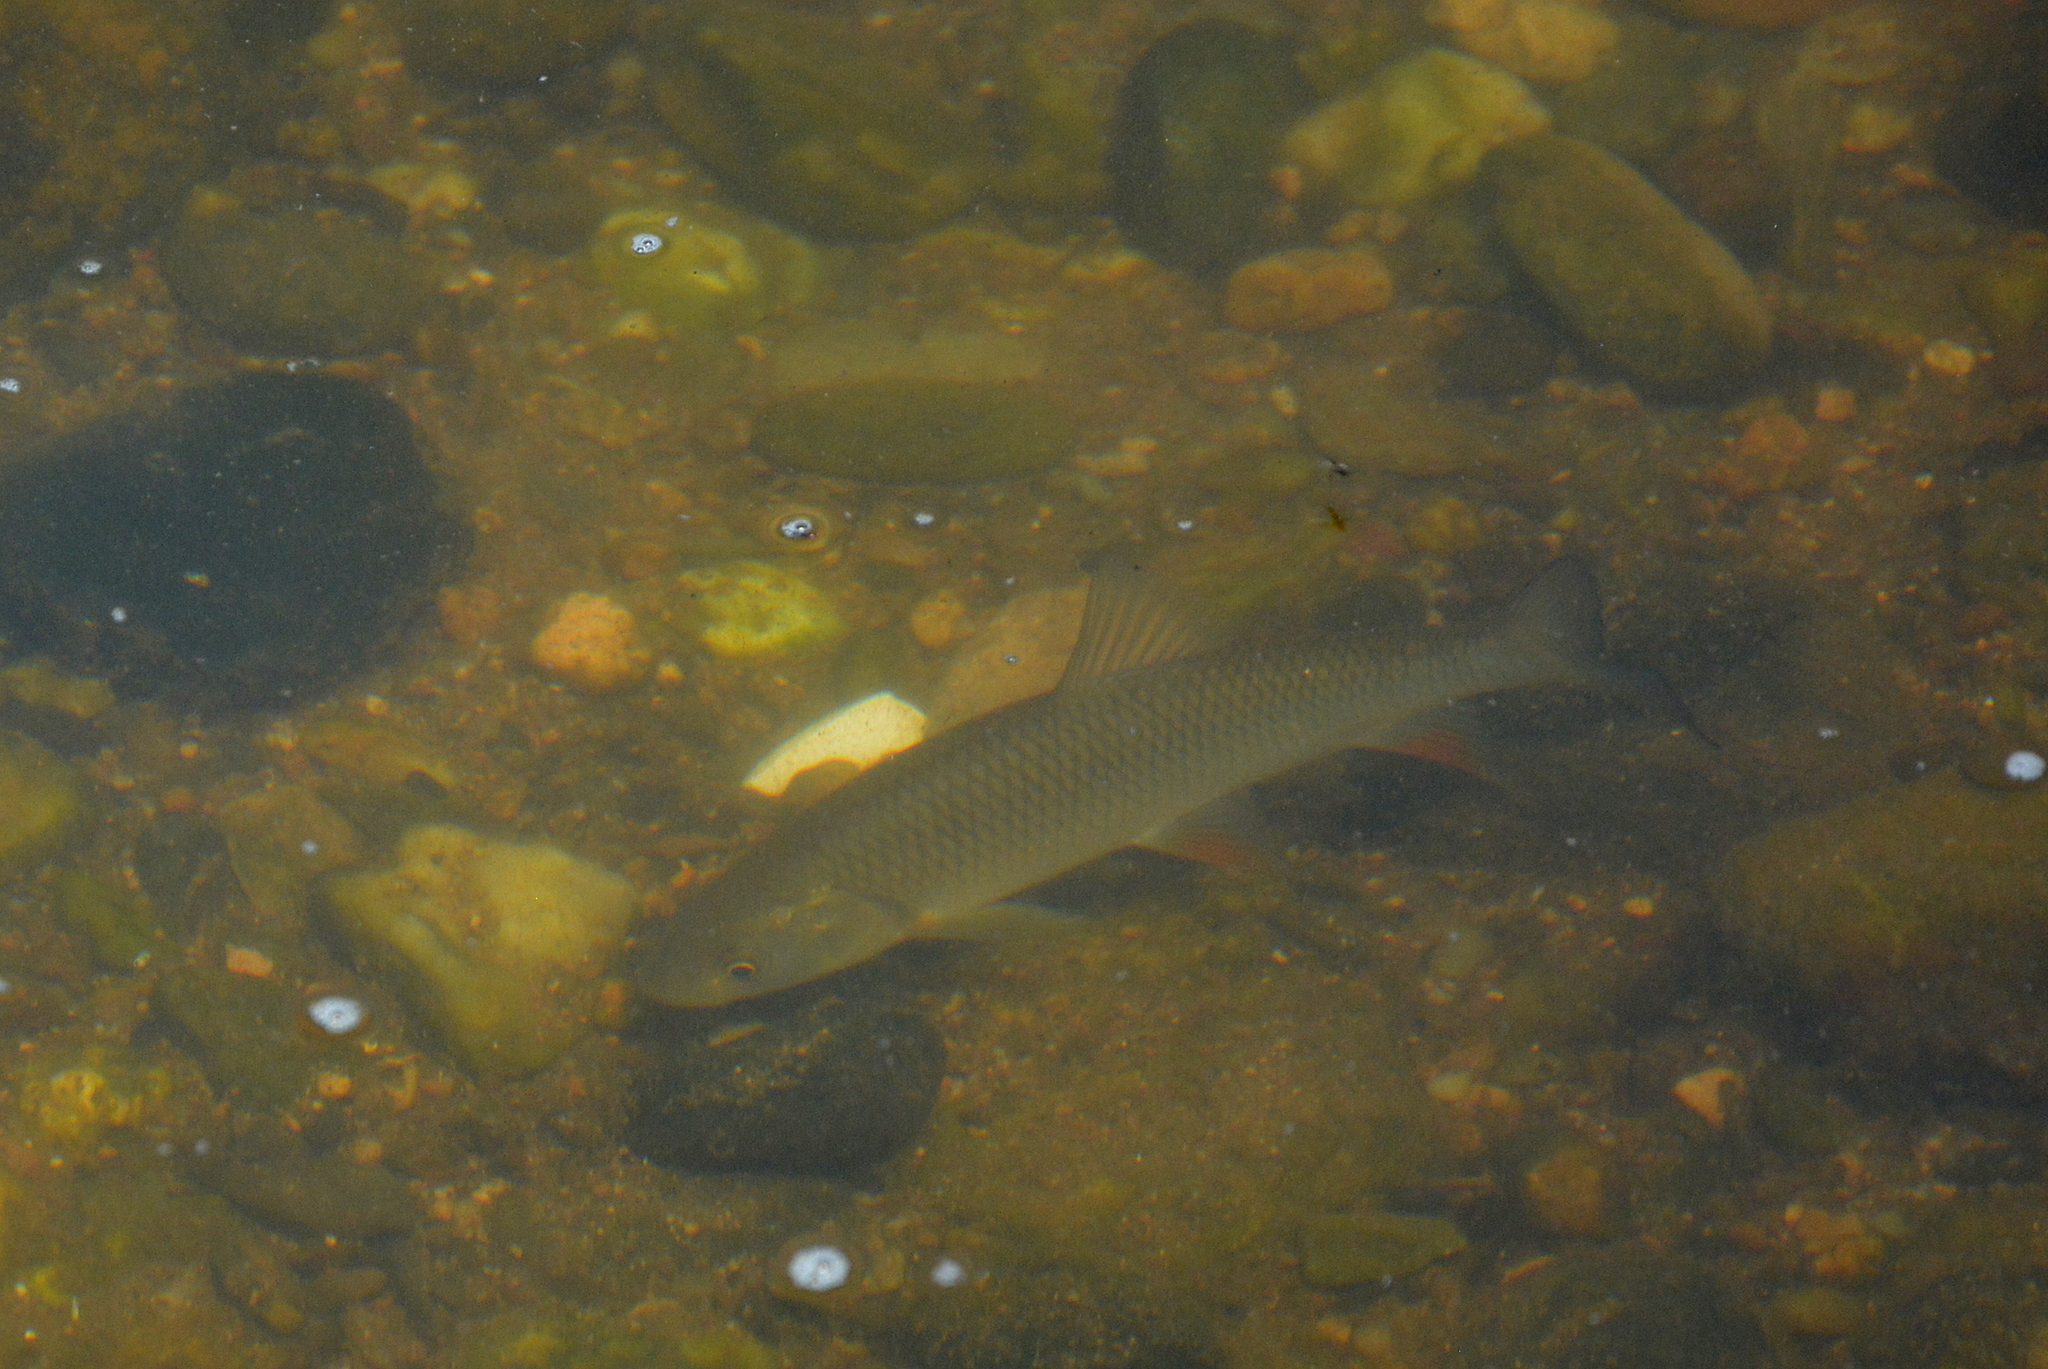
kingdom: Animalia
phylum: Chordata
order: Cypriniformes
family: Cyprinidae
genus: Squalius
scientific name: Squalius cephalus
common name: Chub
